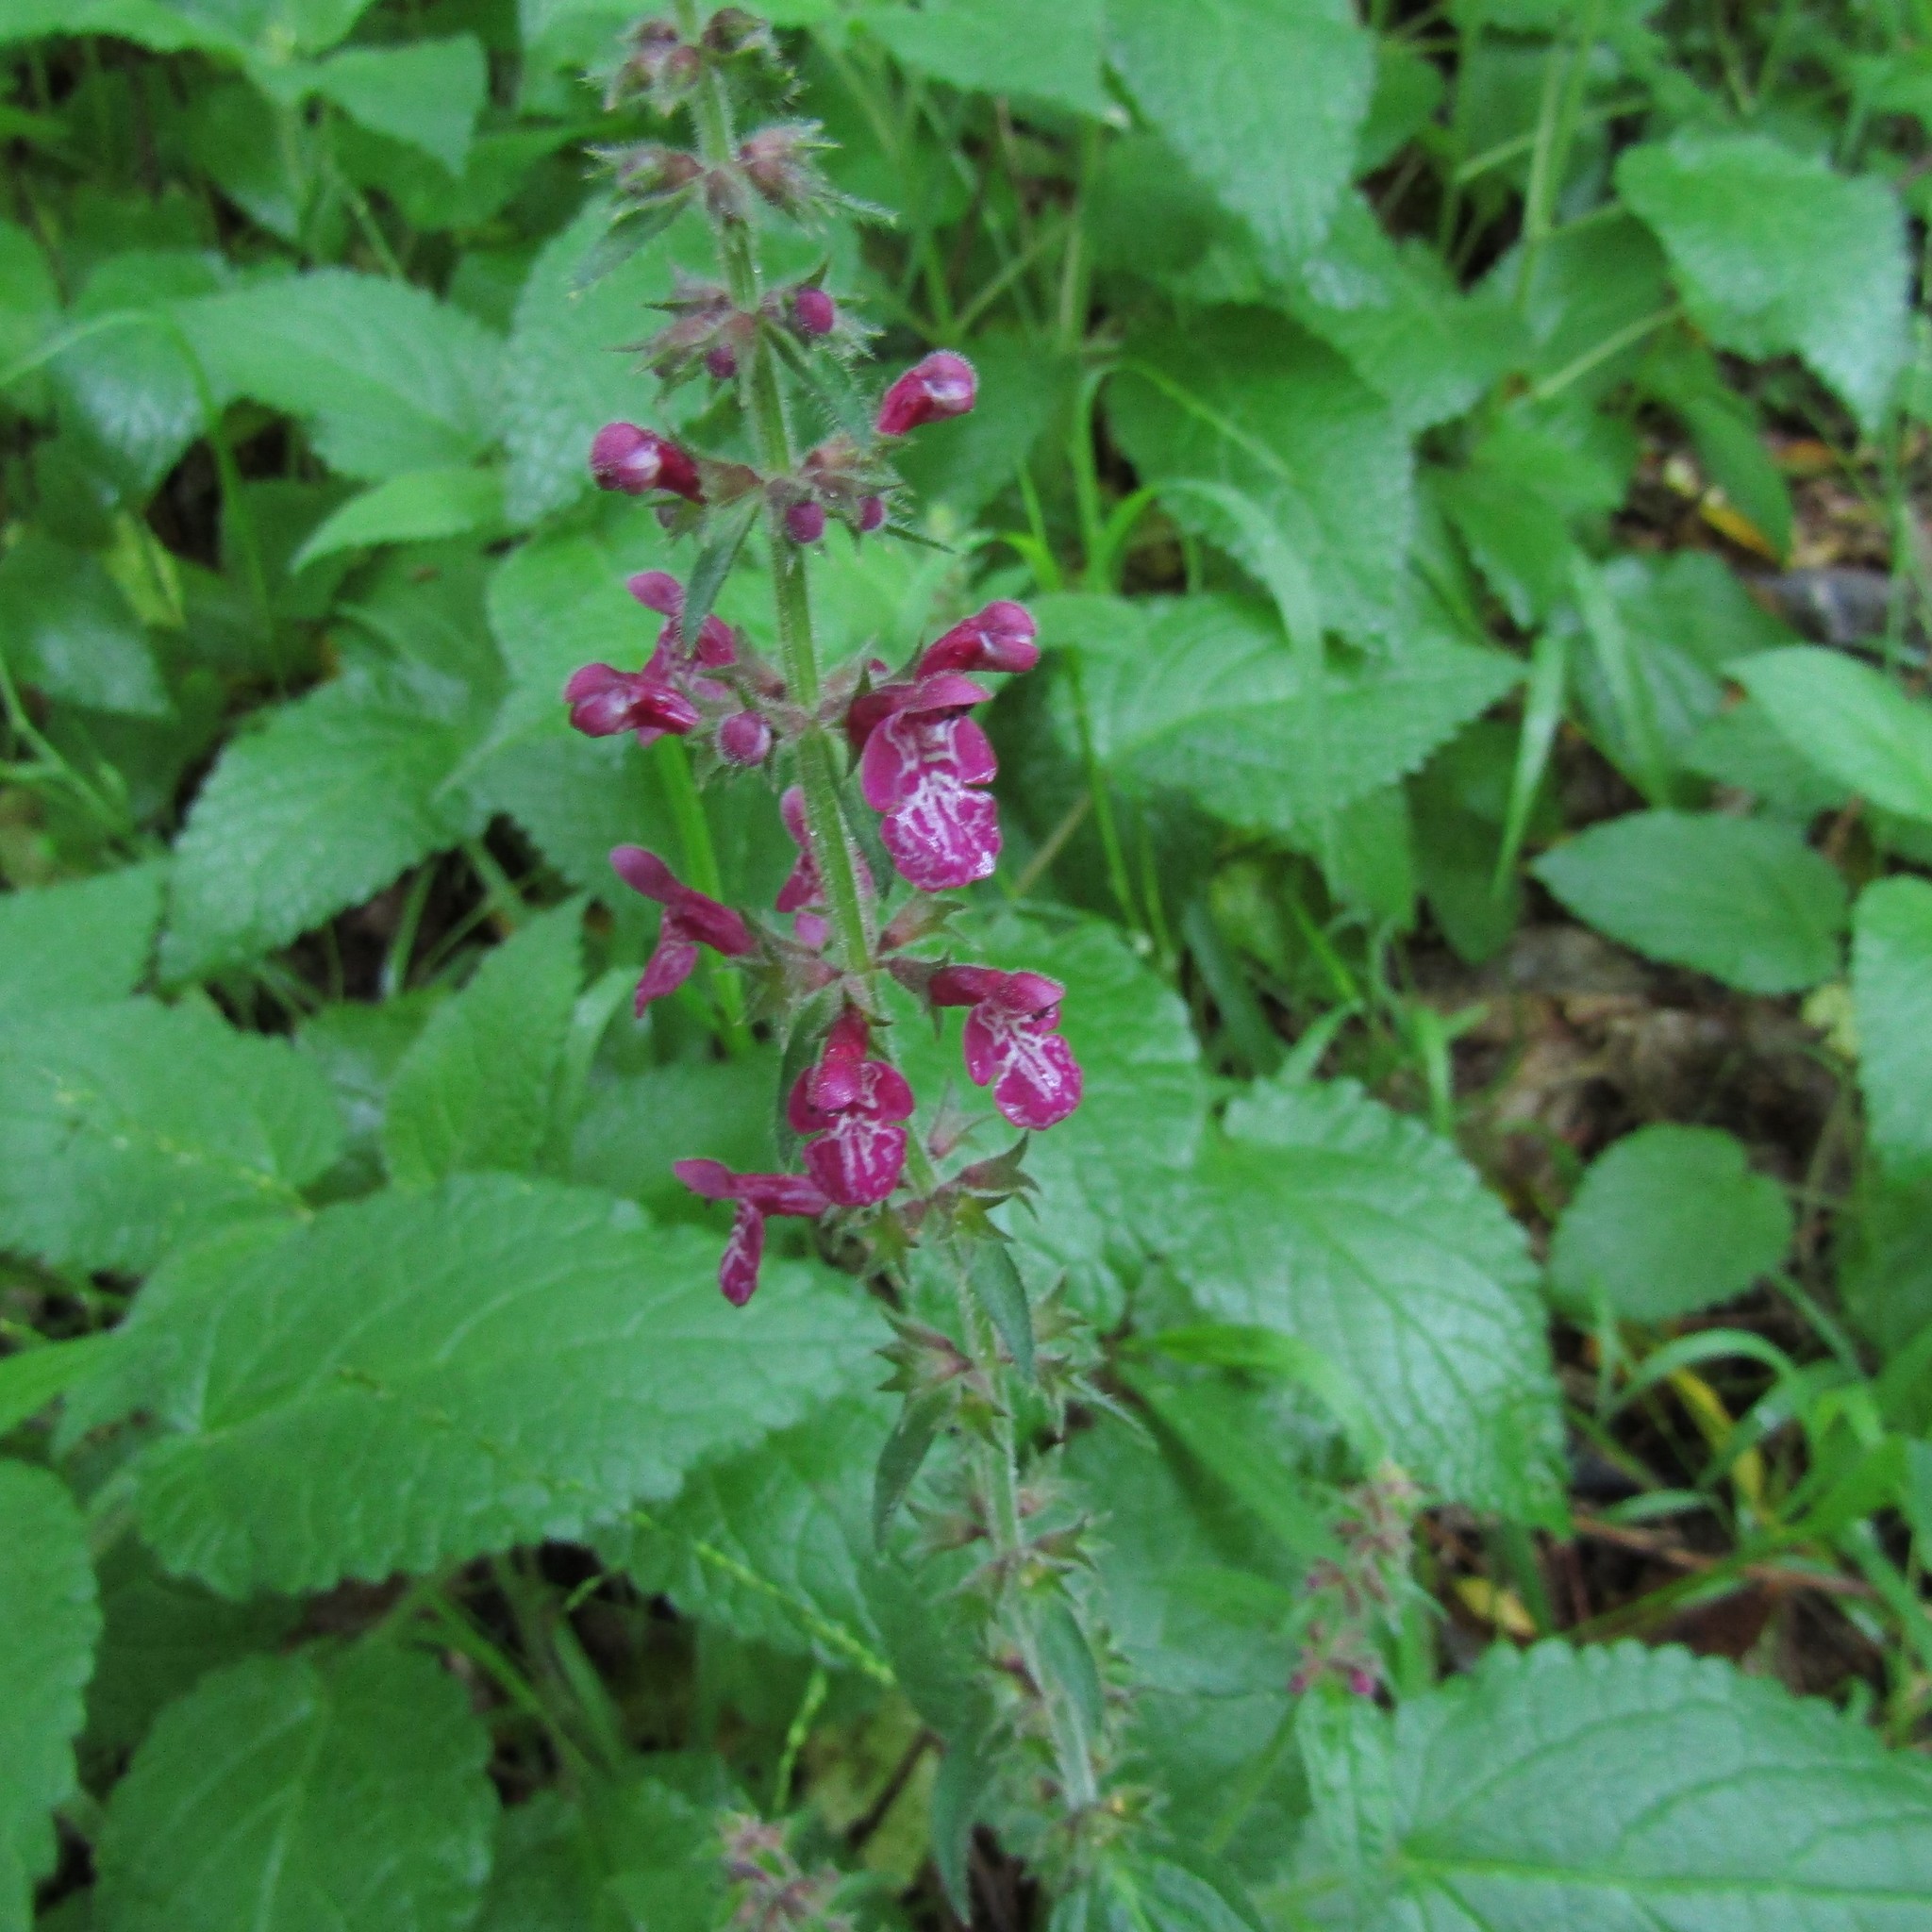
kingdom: Plantae
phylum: Tracheophyta
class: Magnoliopsida
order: Lamiales
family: Lamiaceae
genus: Stachys
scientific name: Stachys sylvatica
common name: Hedge woundwort
